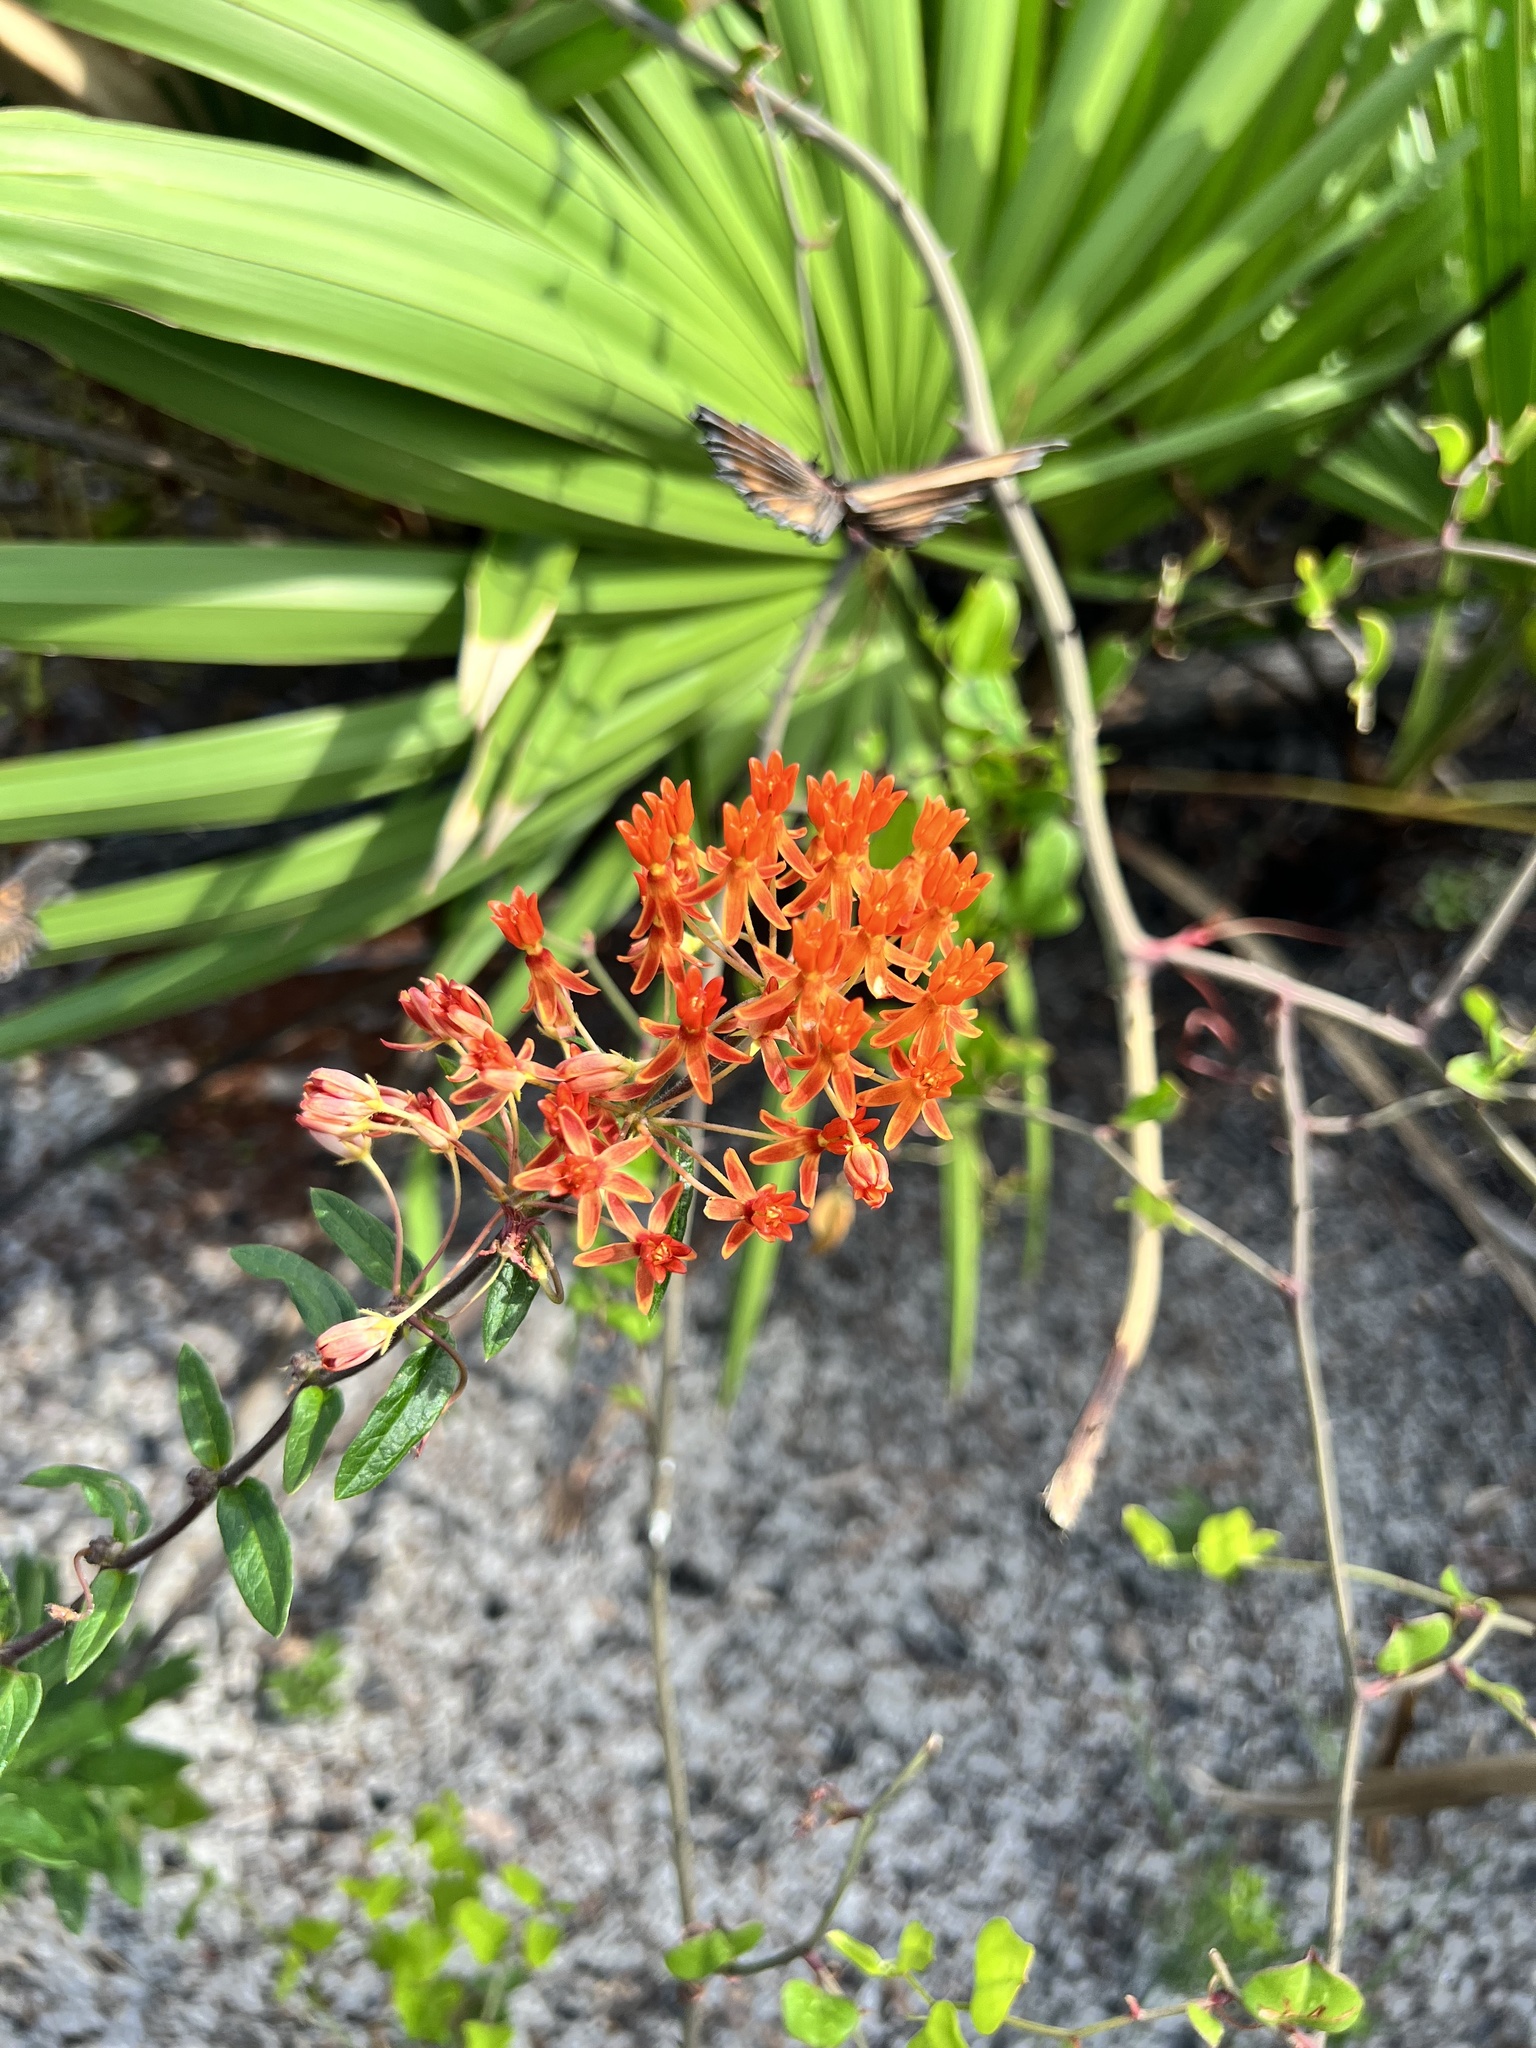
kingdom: Plantae
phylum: Tracheophyta
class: Magnoliopsida
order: Gentianales
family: Apocynaceae
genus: Asclepias
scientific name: Asclepias tuberosa
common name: Butterfly milkweed
